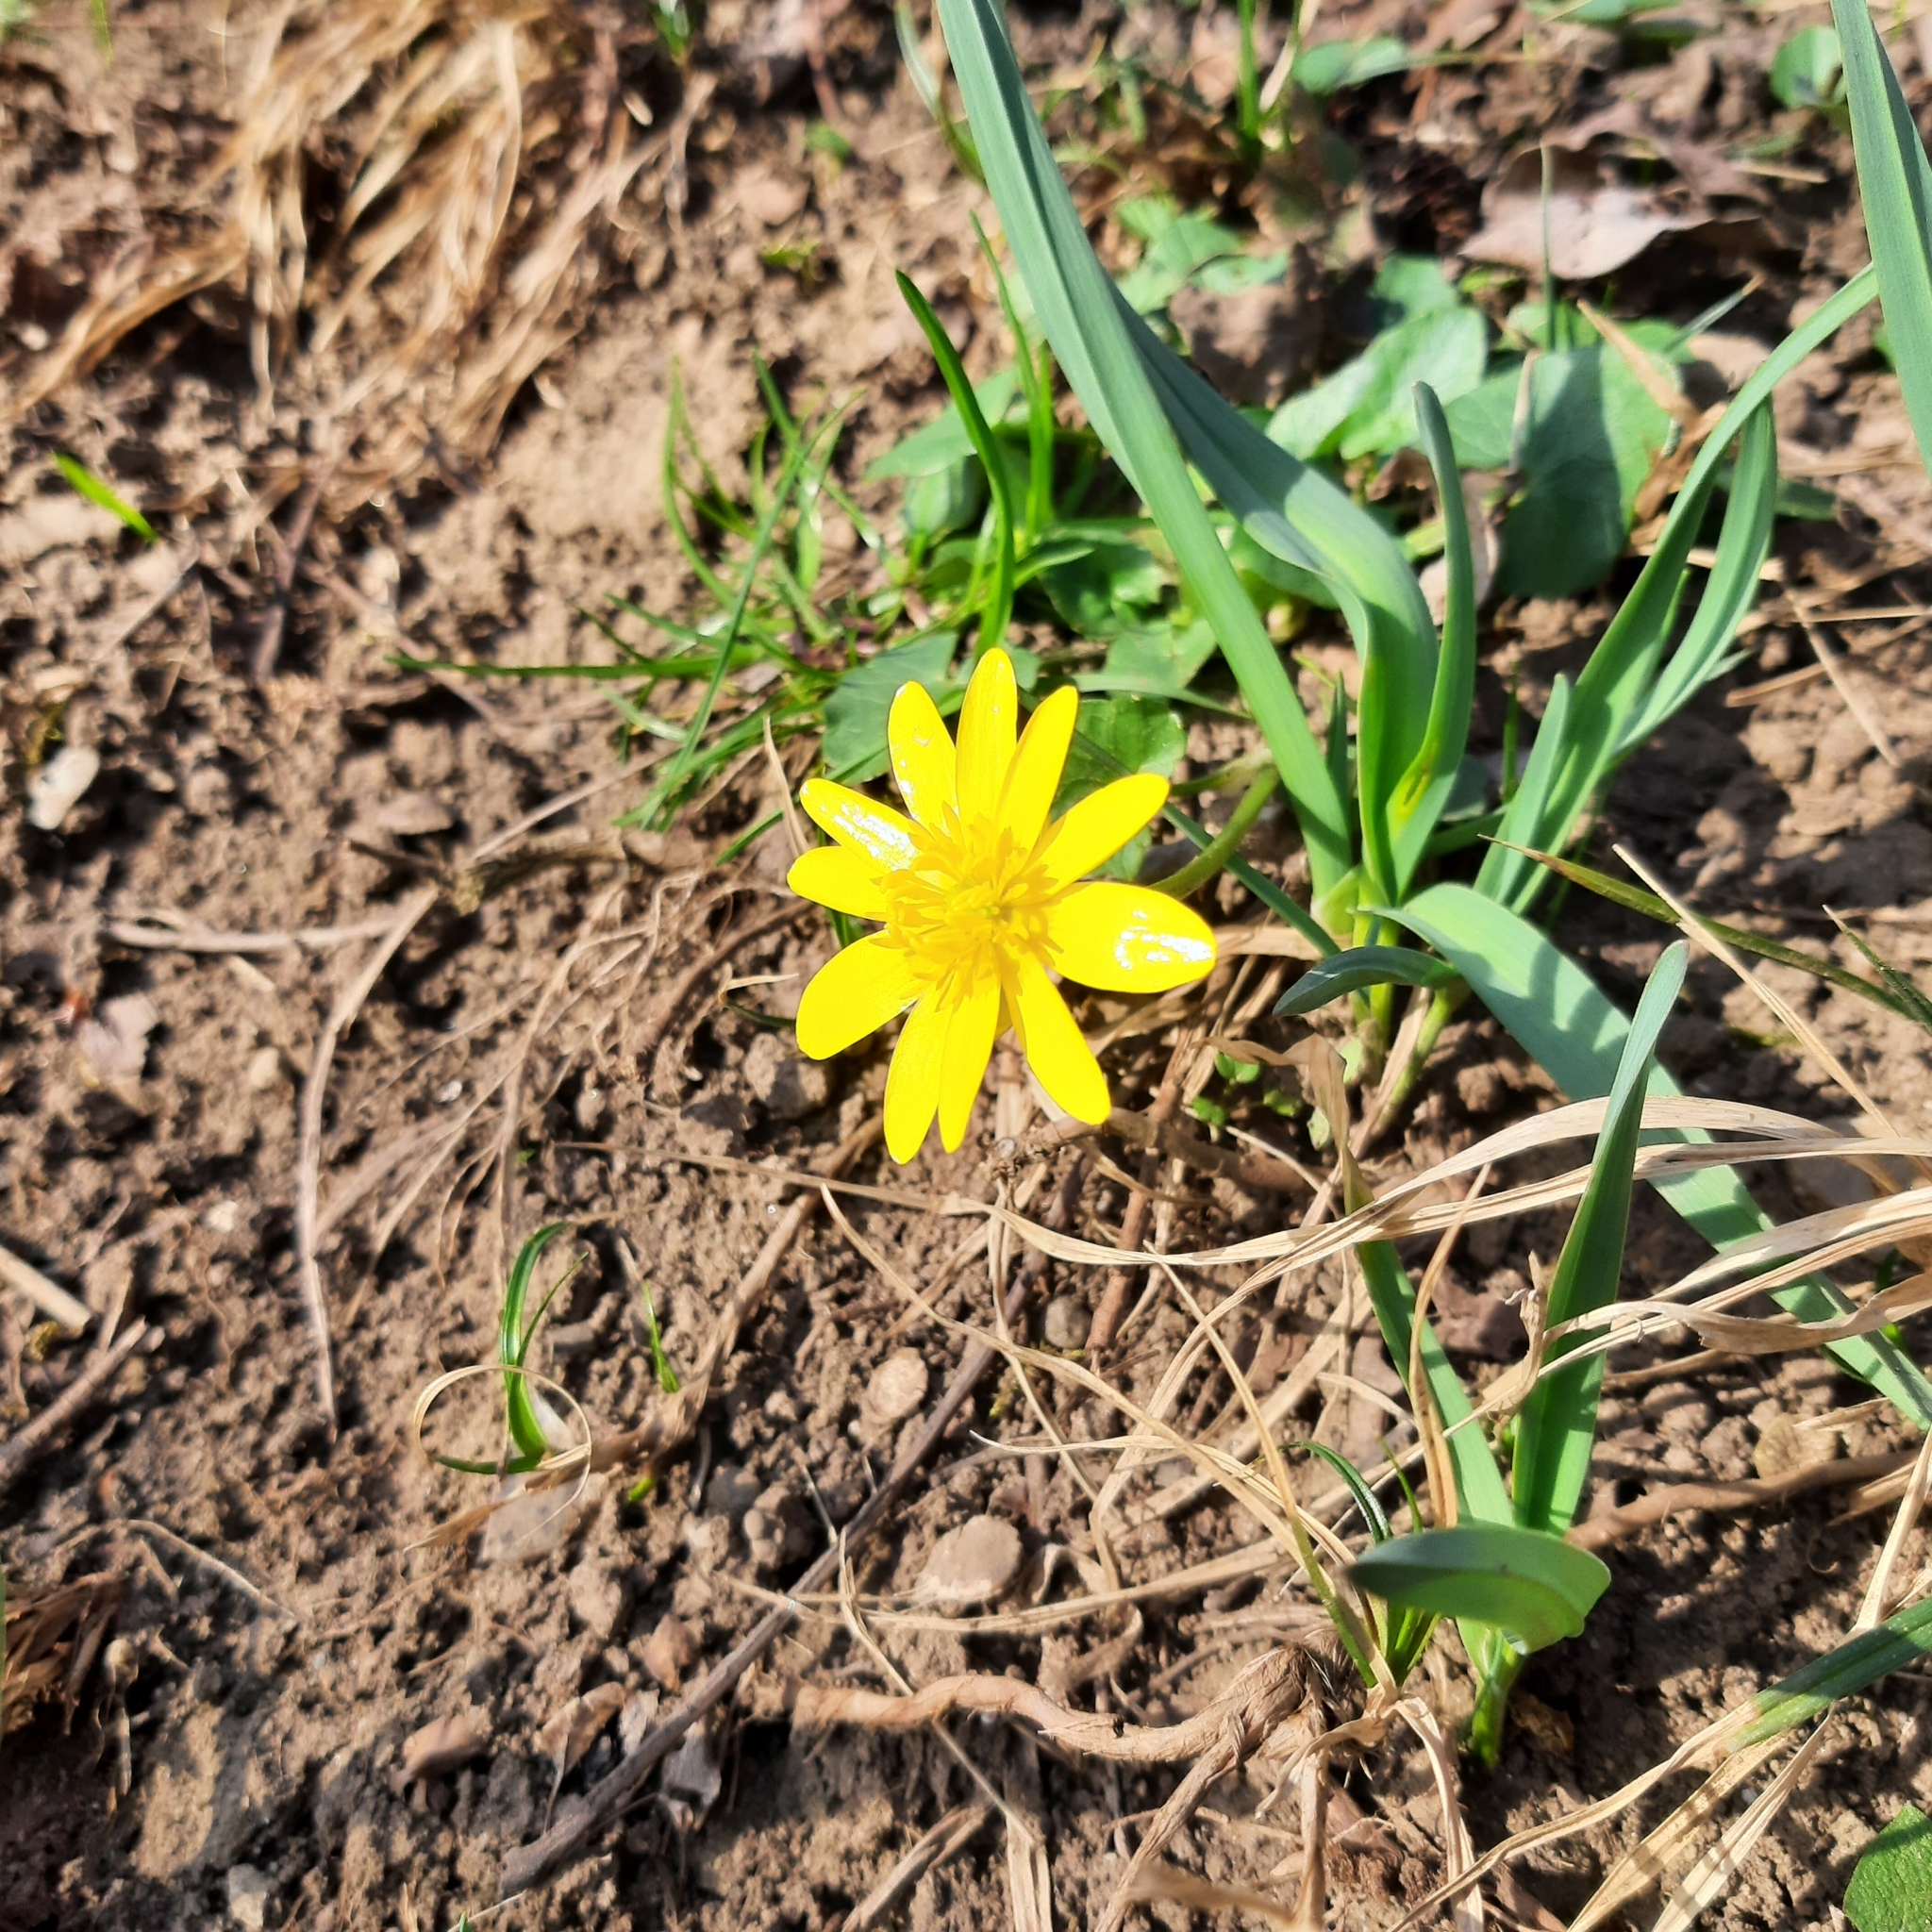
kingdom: Plantae
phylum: Tracheophyta
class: Magnoliopsida
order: Ranunculales
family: Ranunculaceae
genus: Ficaria
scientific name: Ficaria verna
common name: Lesser celandine
